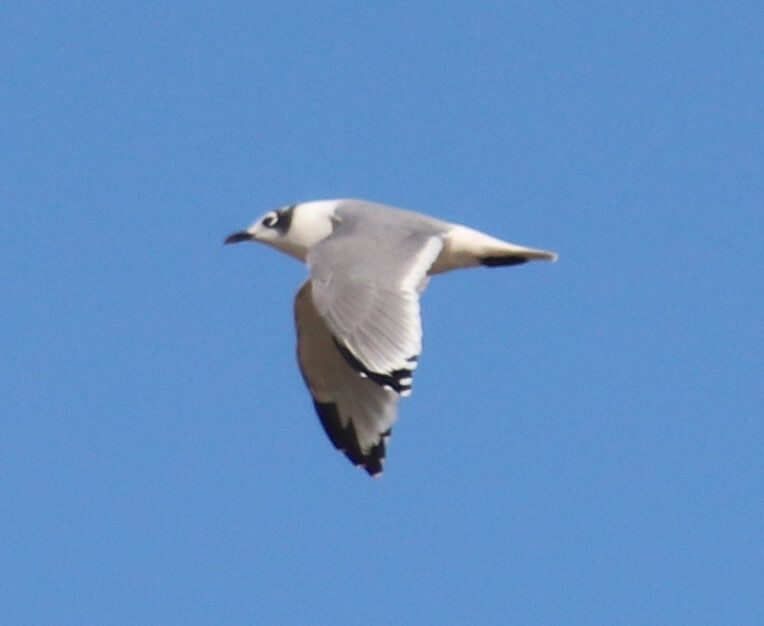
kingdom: Animalia
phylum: Chordata
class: Aves
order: Charadriiformes
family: Laridae
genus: Leucophaeus
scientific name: Leucophaeus pipixcan
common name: Franklin's gull
